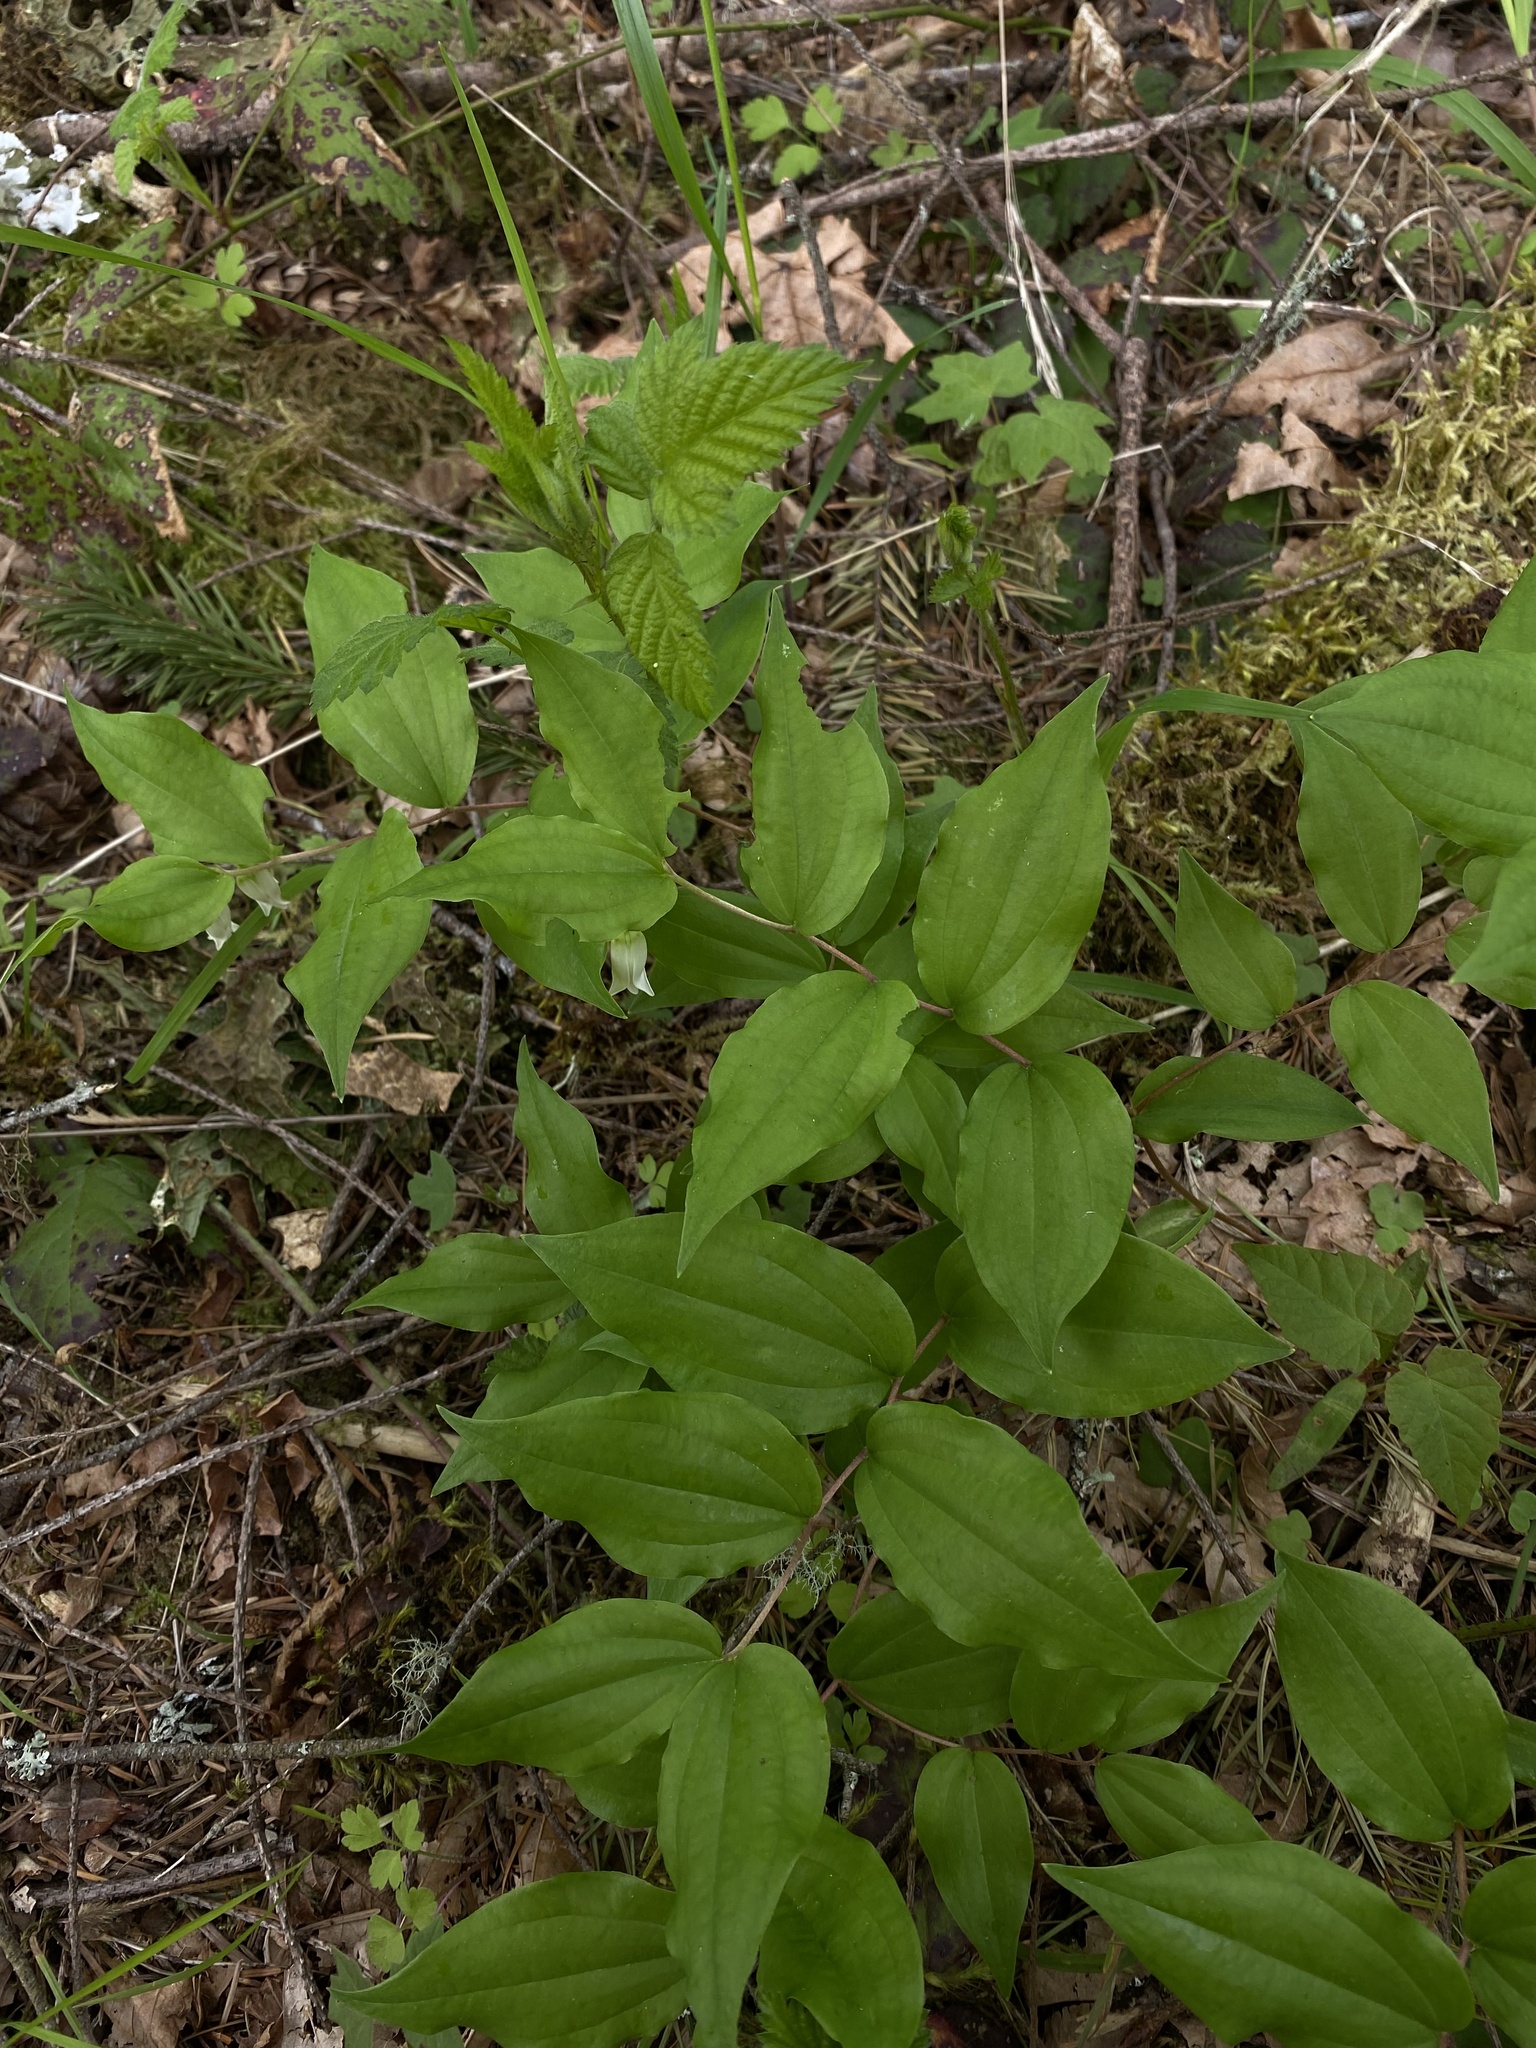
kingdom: Plantae
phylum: Tracheophyta
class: Liliopsida
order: Liliales
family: Liliaceae
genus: Prosartes
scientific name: Prosartes smithii
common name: Fairy-lantern
